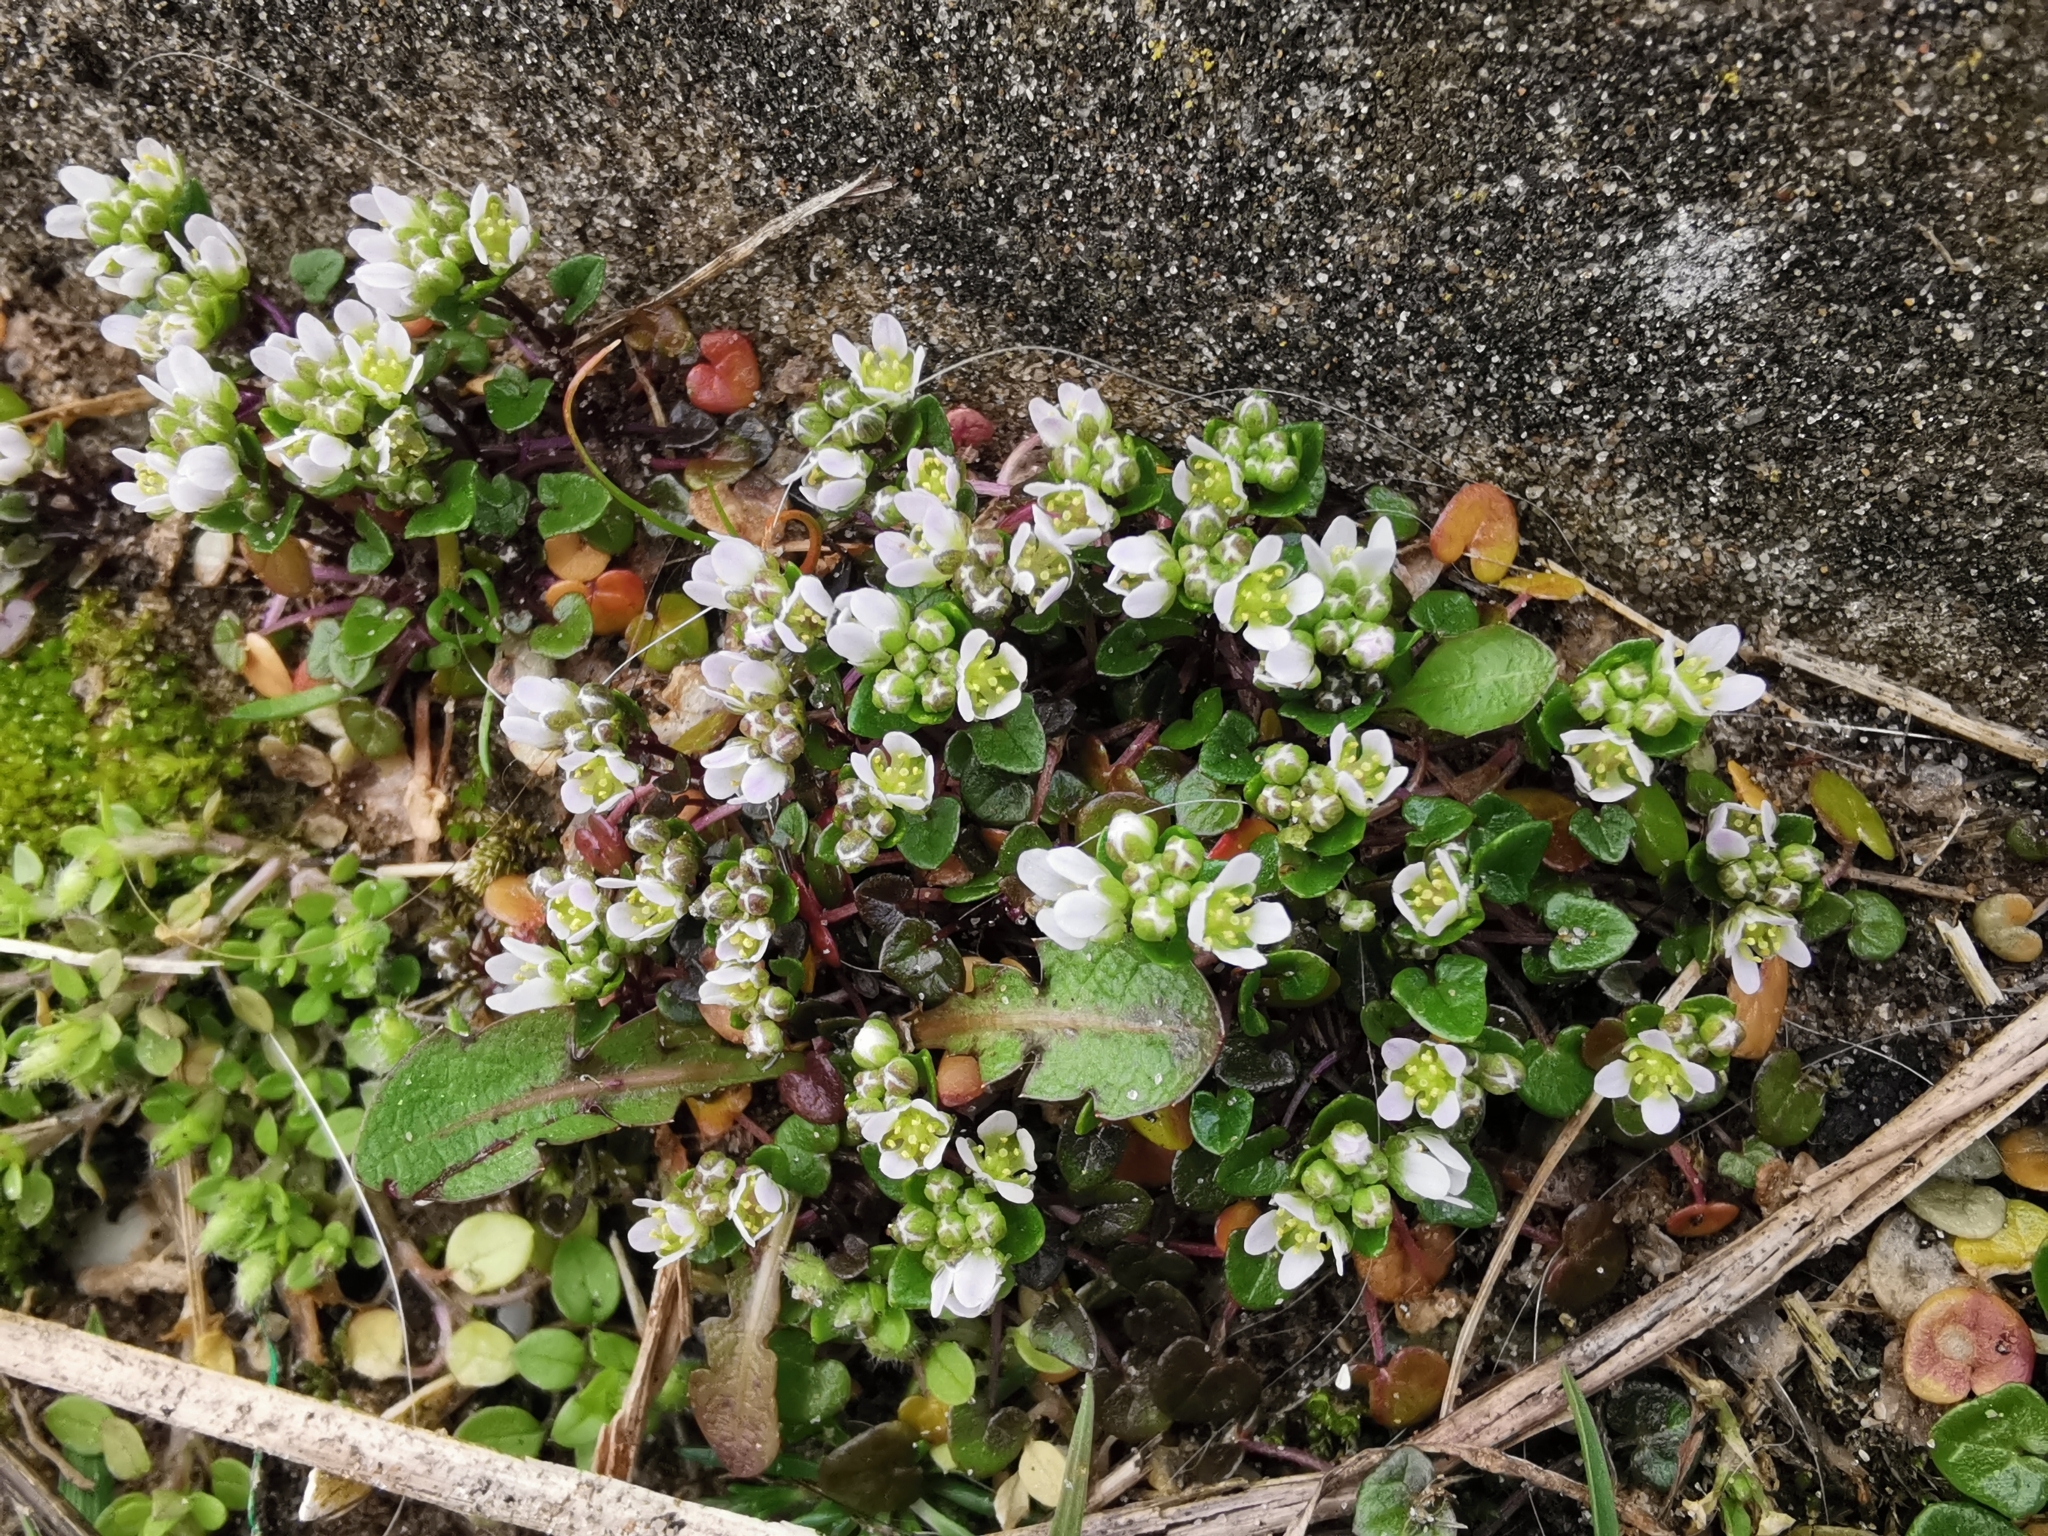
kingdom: Plantae
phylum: Tracheophyta
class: Magnoliopsida
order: Brassicales
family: Brassicaceae
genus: Cochlearia
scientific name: Cochlearia danica
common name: Early scurvygrass
